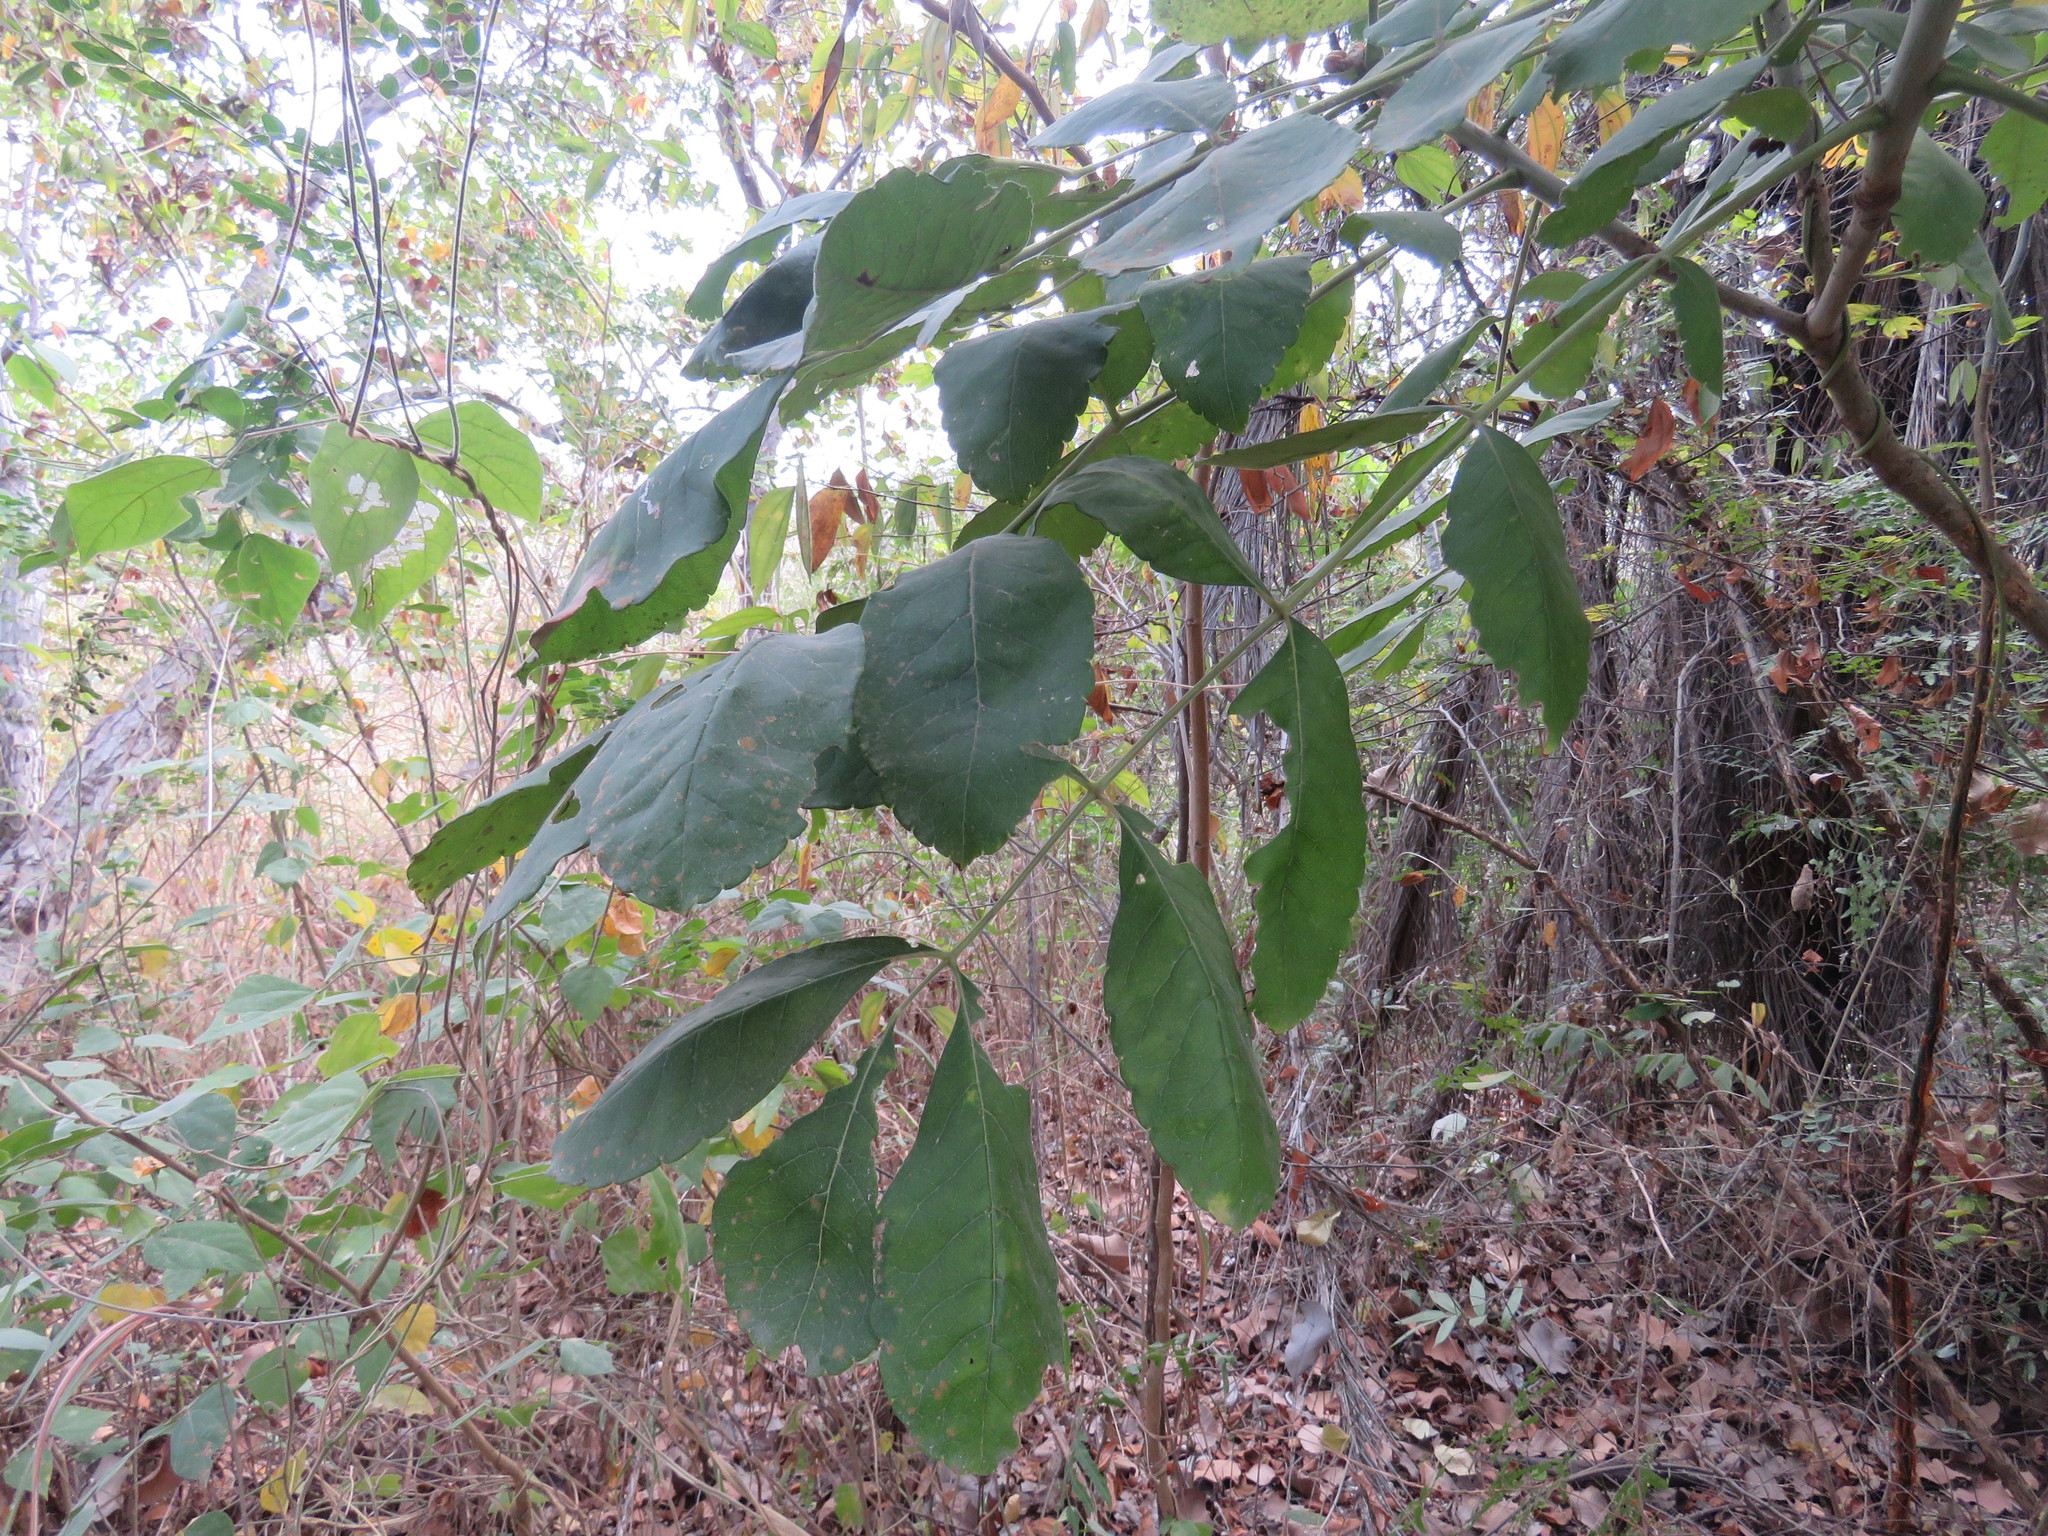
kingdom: Plantae
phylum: Tracheophyta
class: Magnoliopsida
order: Sapindales
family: Anacardiaceae
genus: Comocladia
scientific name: Comocladia macrophylla
